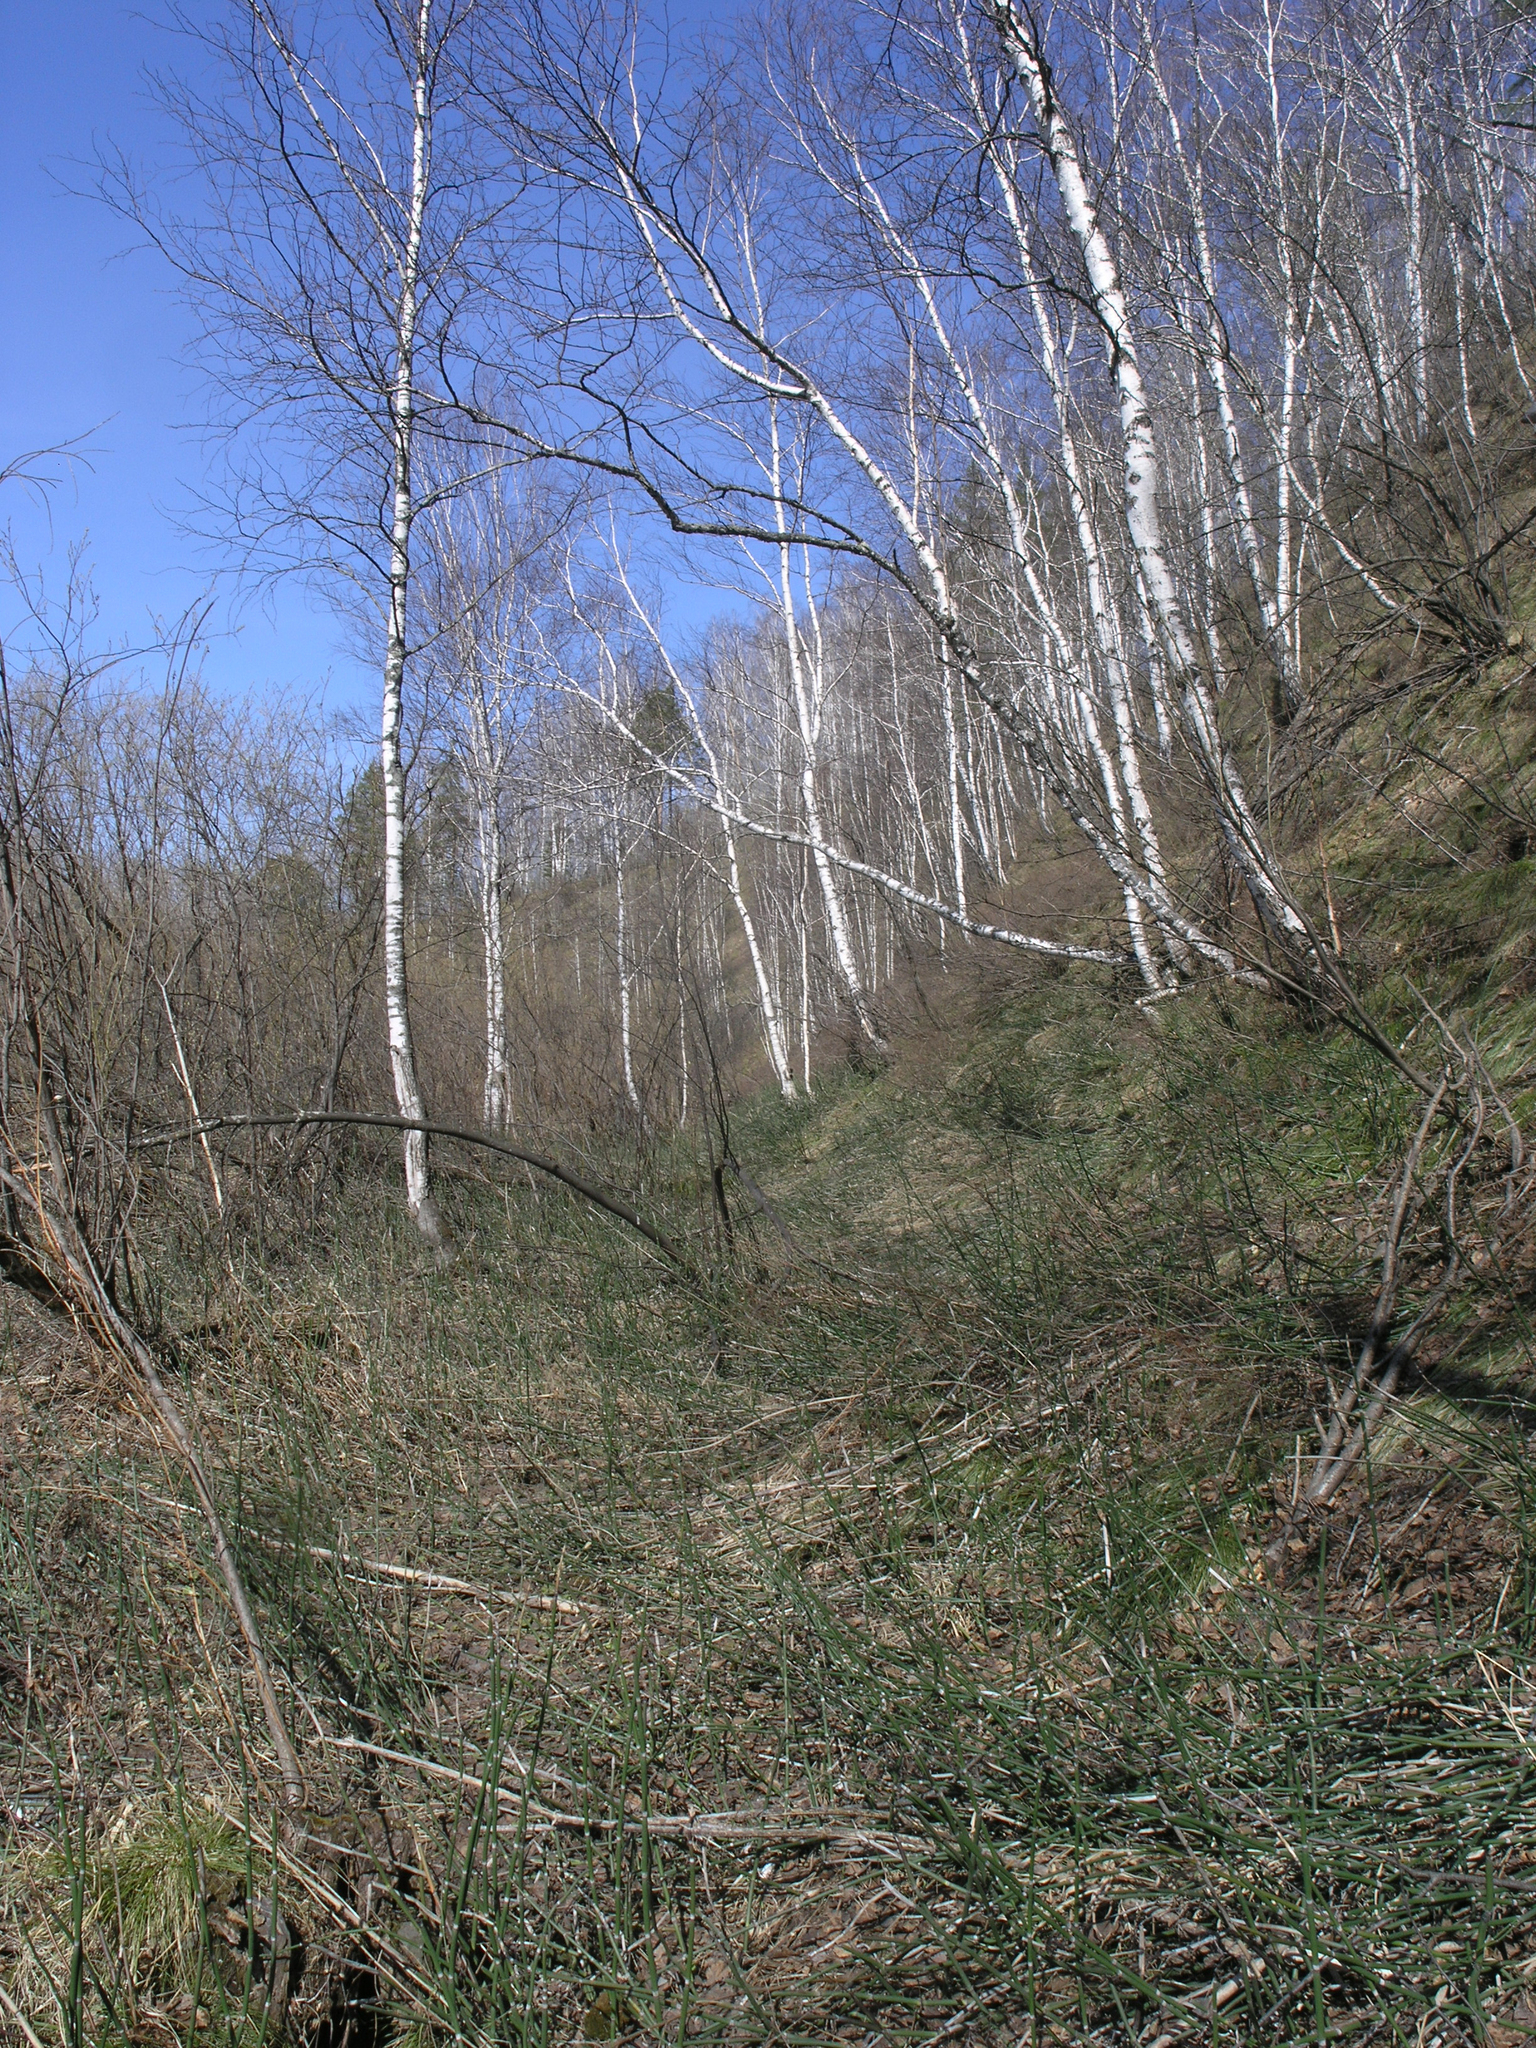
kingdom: Plantae
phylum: Tracheophyta
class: Polypodiopsida
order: Equisetales
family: Equisetaceae
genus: Equisetum
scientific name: Equisetum hyemale
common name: Rough horsetail
